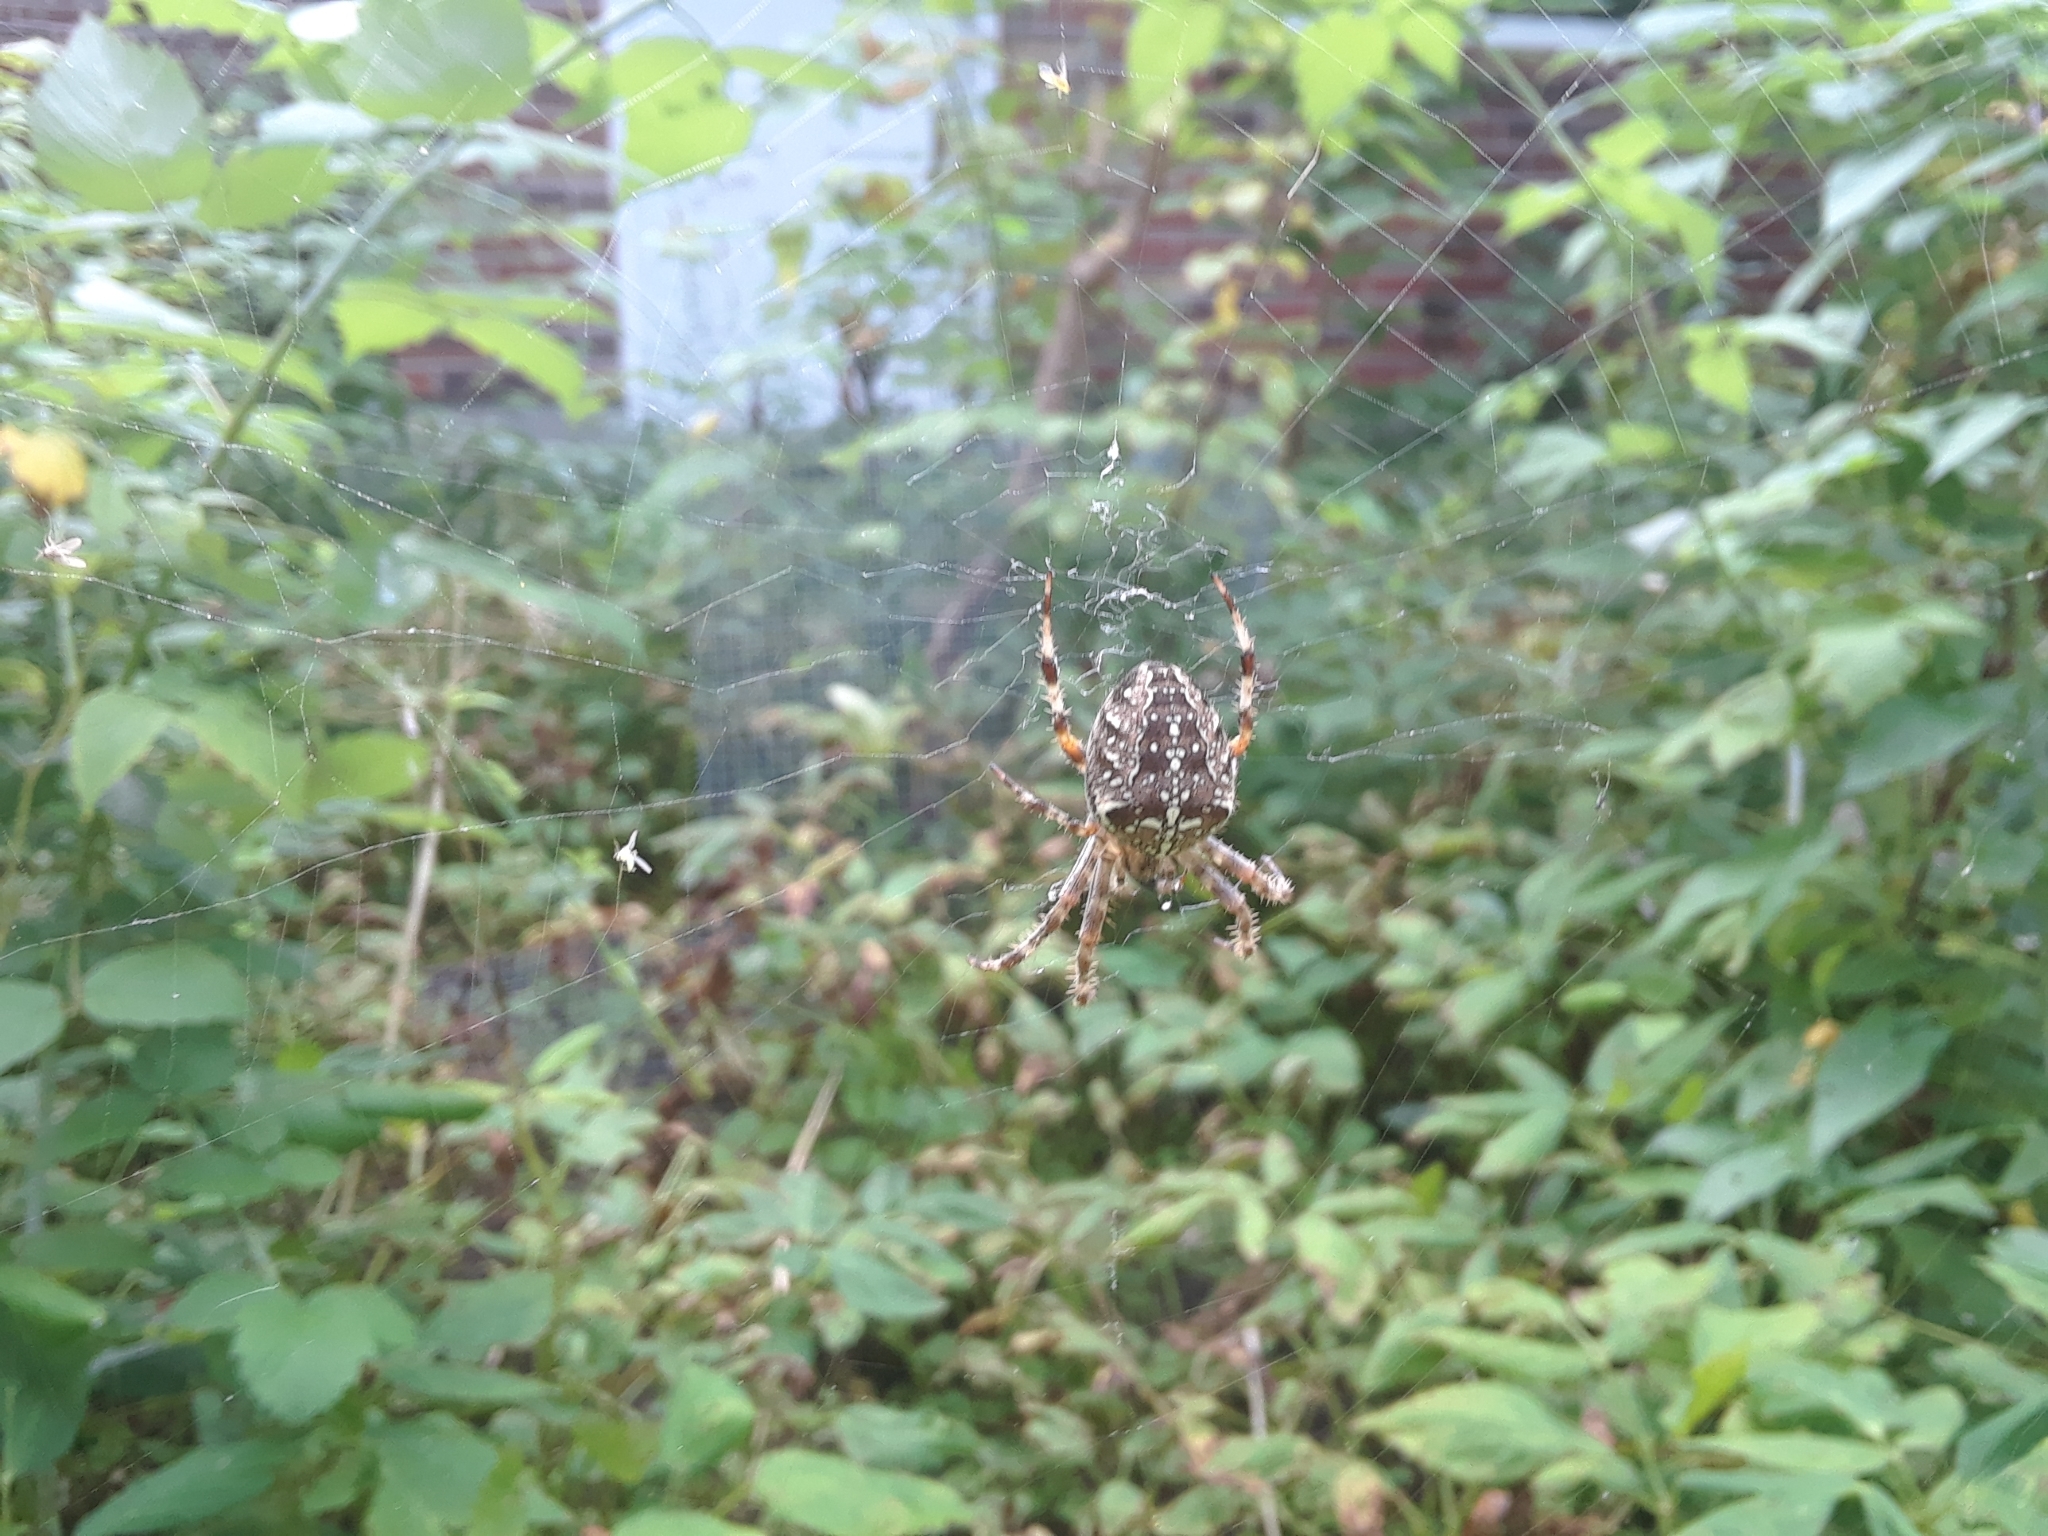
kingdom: Animalia
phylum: Arthropoda
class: Arachnida
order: Araneae
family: Araneidae
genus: Araneus
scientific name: Araneus diadematus
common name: Cross orbweaver
